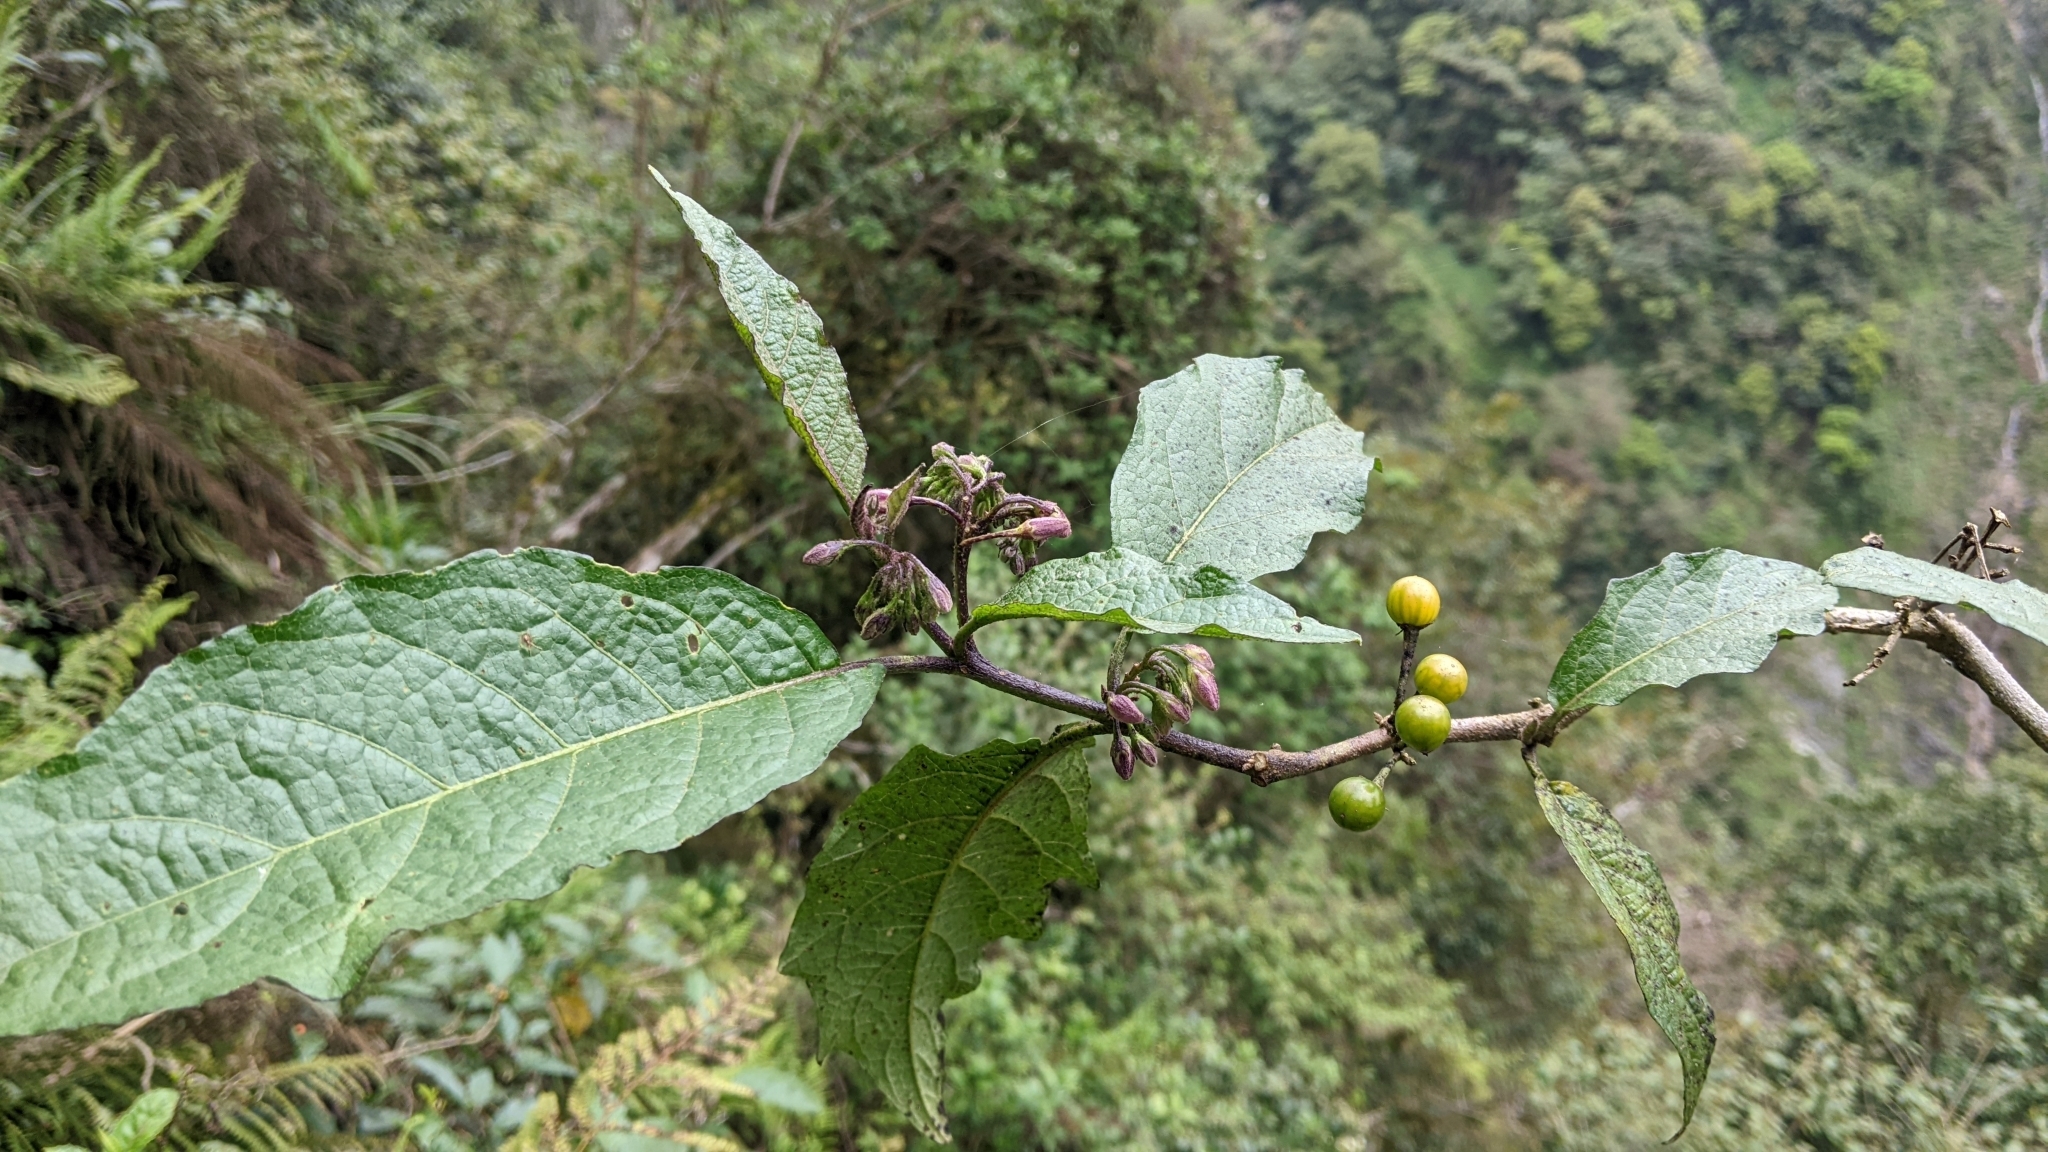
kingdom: Plantae
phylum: Tracheophyta
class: Magnoliopsida
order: Solanales
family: Solanaceae
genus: Solanum
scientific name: Solanum peikuoense
